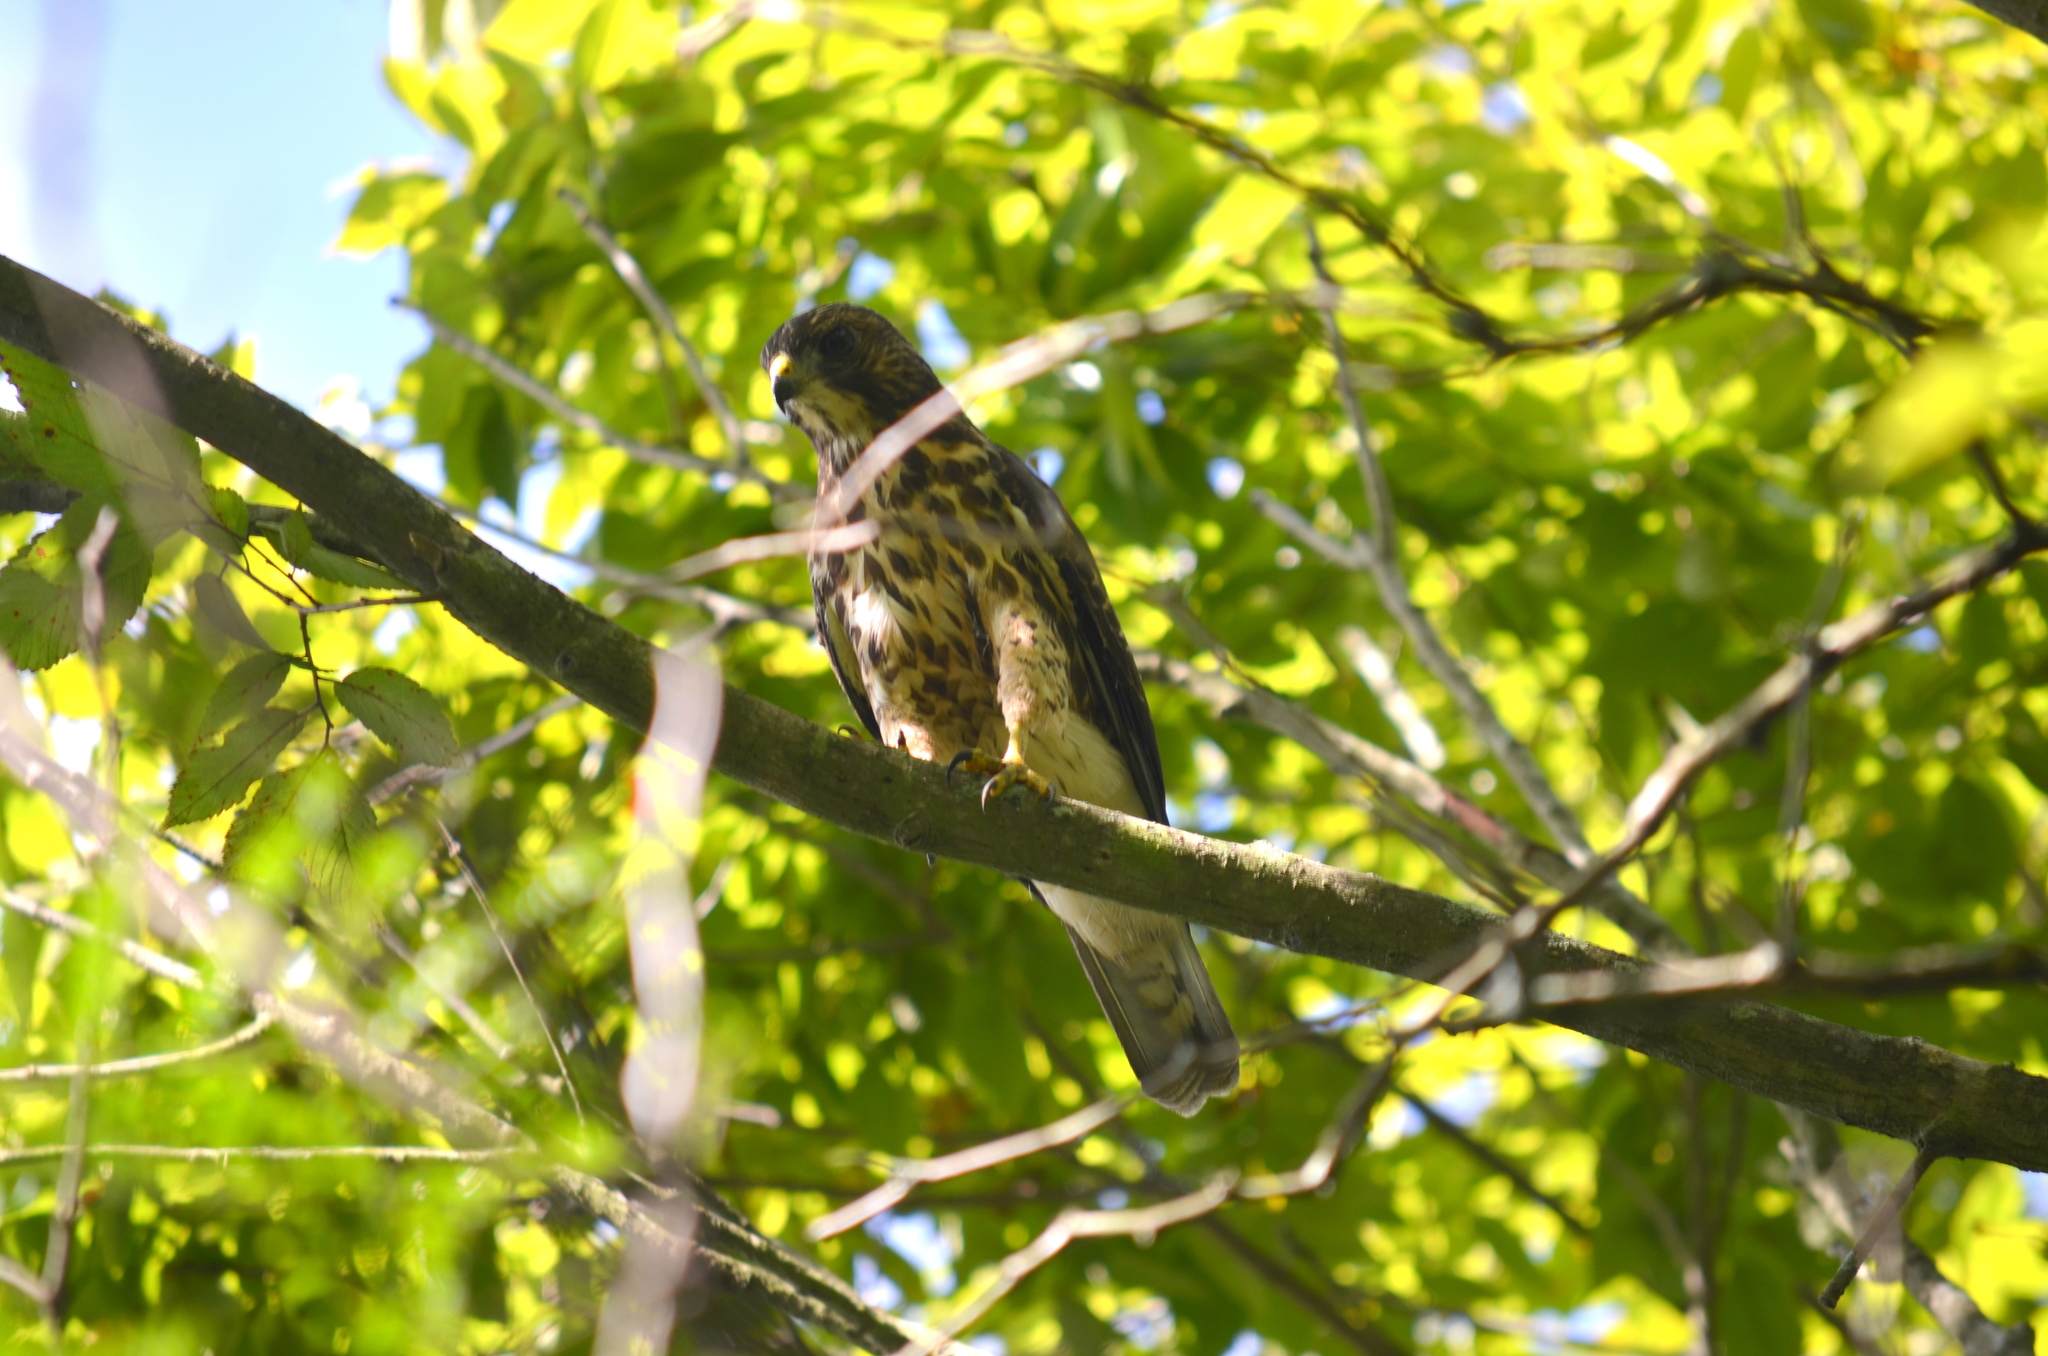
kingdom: Animalia
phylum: Chordata
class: Aves
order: Accipitriformes
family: Accipitridae
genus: Buteo
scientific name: Buteo platypterus
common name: Broad-winged hawk
